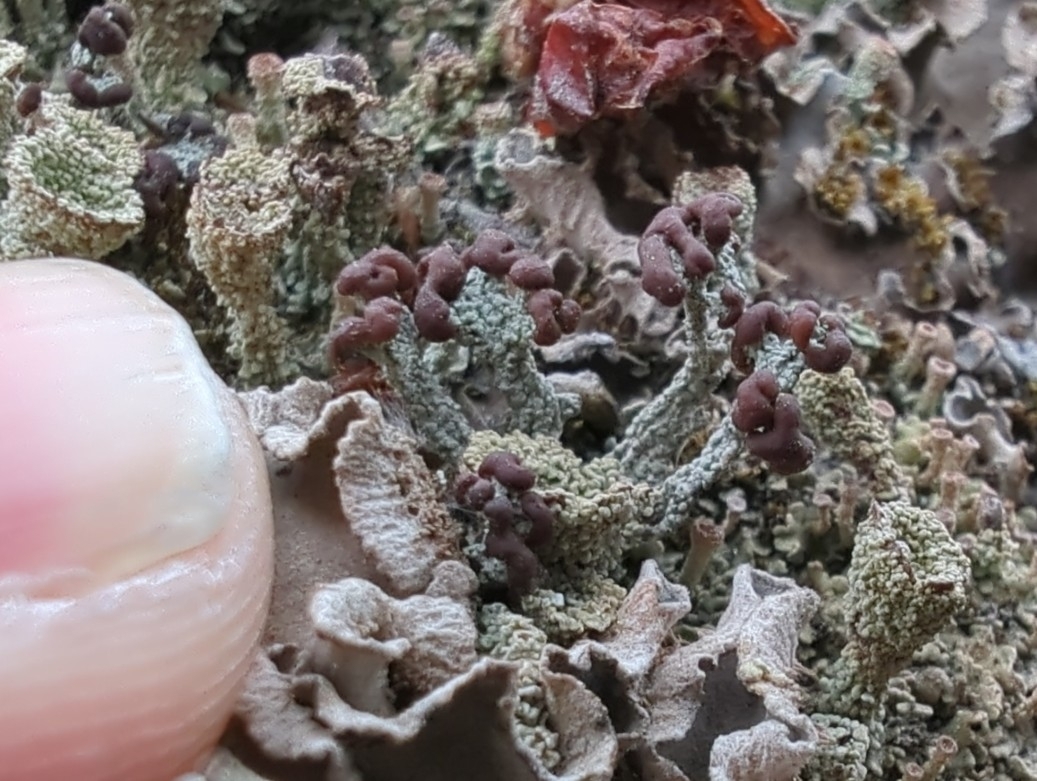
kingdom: Fungi
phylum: Ascomycota
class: Lecanoromycetes
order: Lecanorales
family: Cladoniaceae
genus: Cladonia
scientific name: Cladonia cariosa
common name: Split-peg lichen
